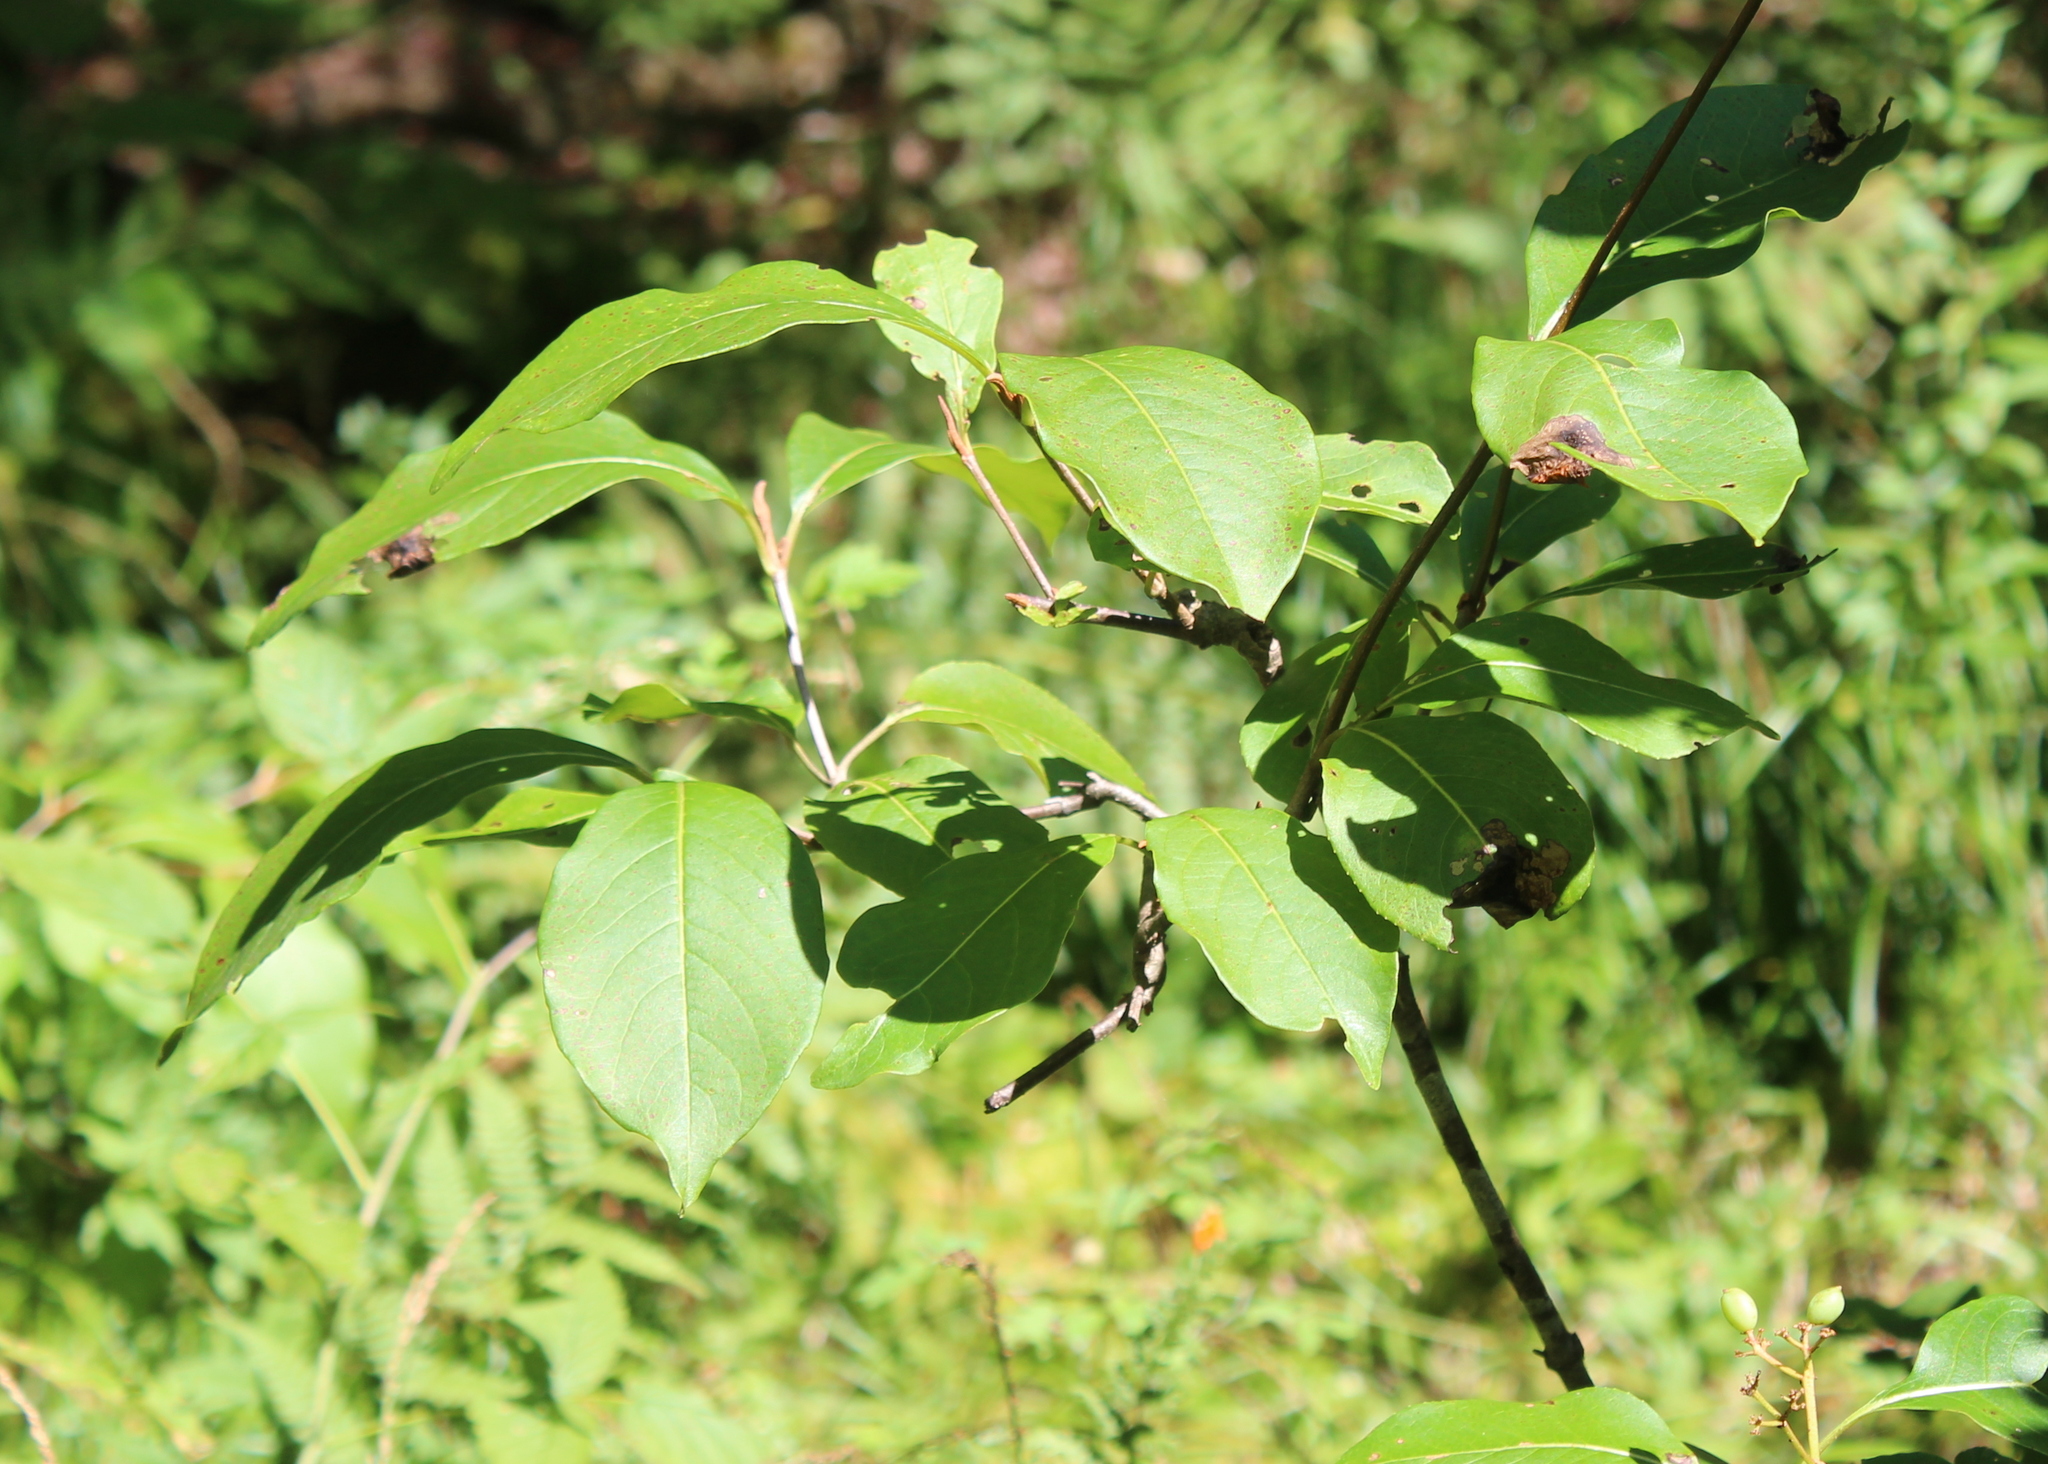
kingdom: Plantae
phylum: Tracheophyta
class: Magnoliopsida
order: Dipsacales
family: Viburnaceae
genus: Viburnum
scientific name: Viburnum cassinoides
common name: Swamp haw
